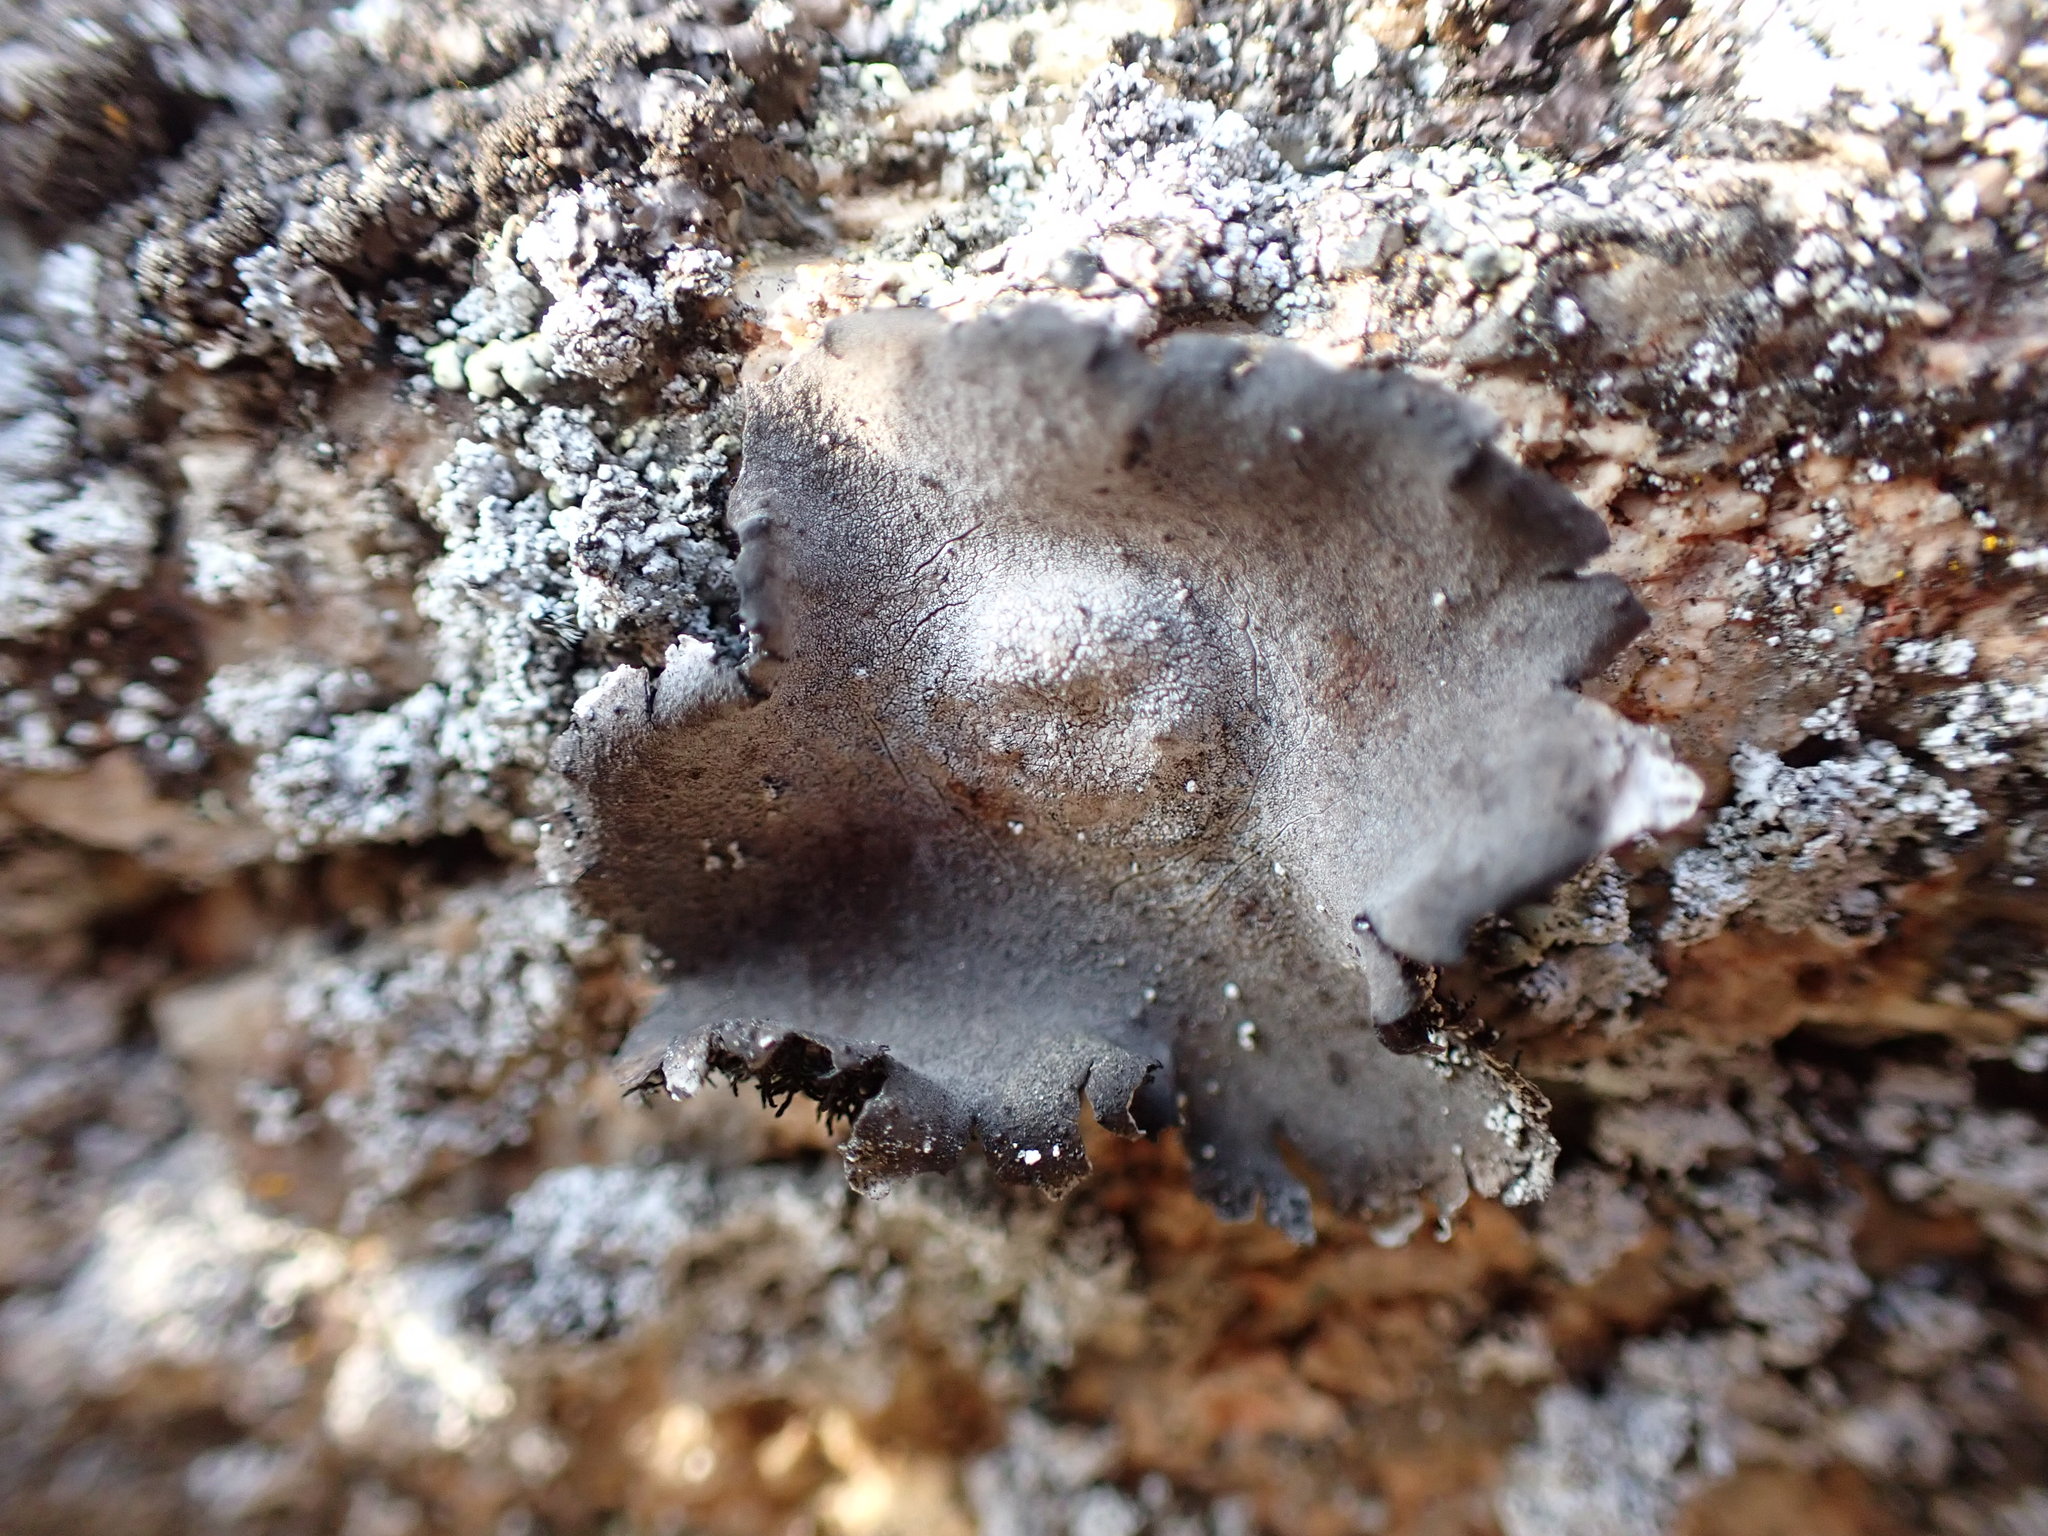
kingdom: Fungi
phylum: Ascomycota
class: Lecanoromycetes
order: Umbilicariales
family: Umbilicariaceae
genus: Umbilicaria
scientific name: Umbilicaria americana
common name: Frosted rock tripe
